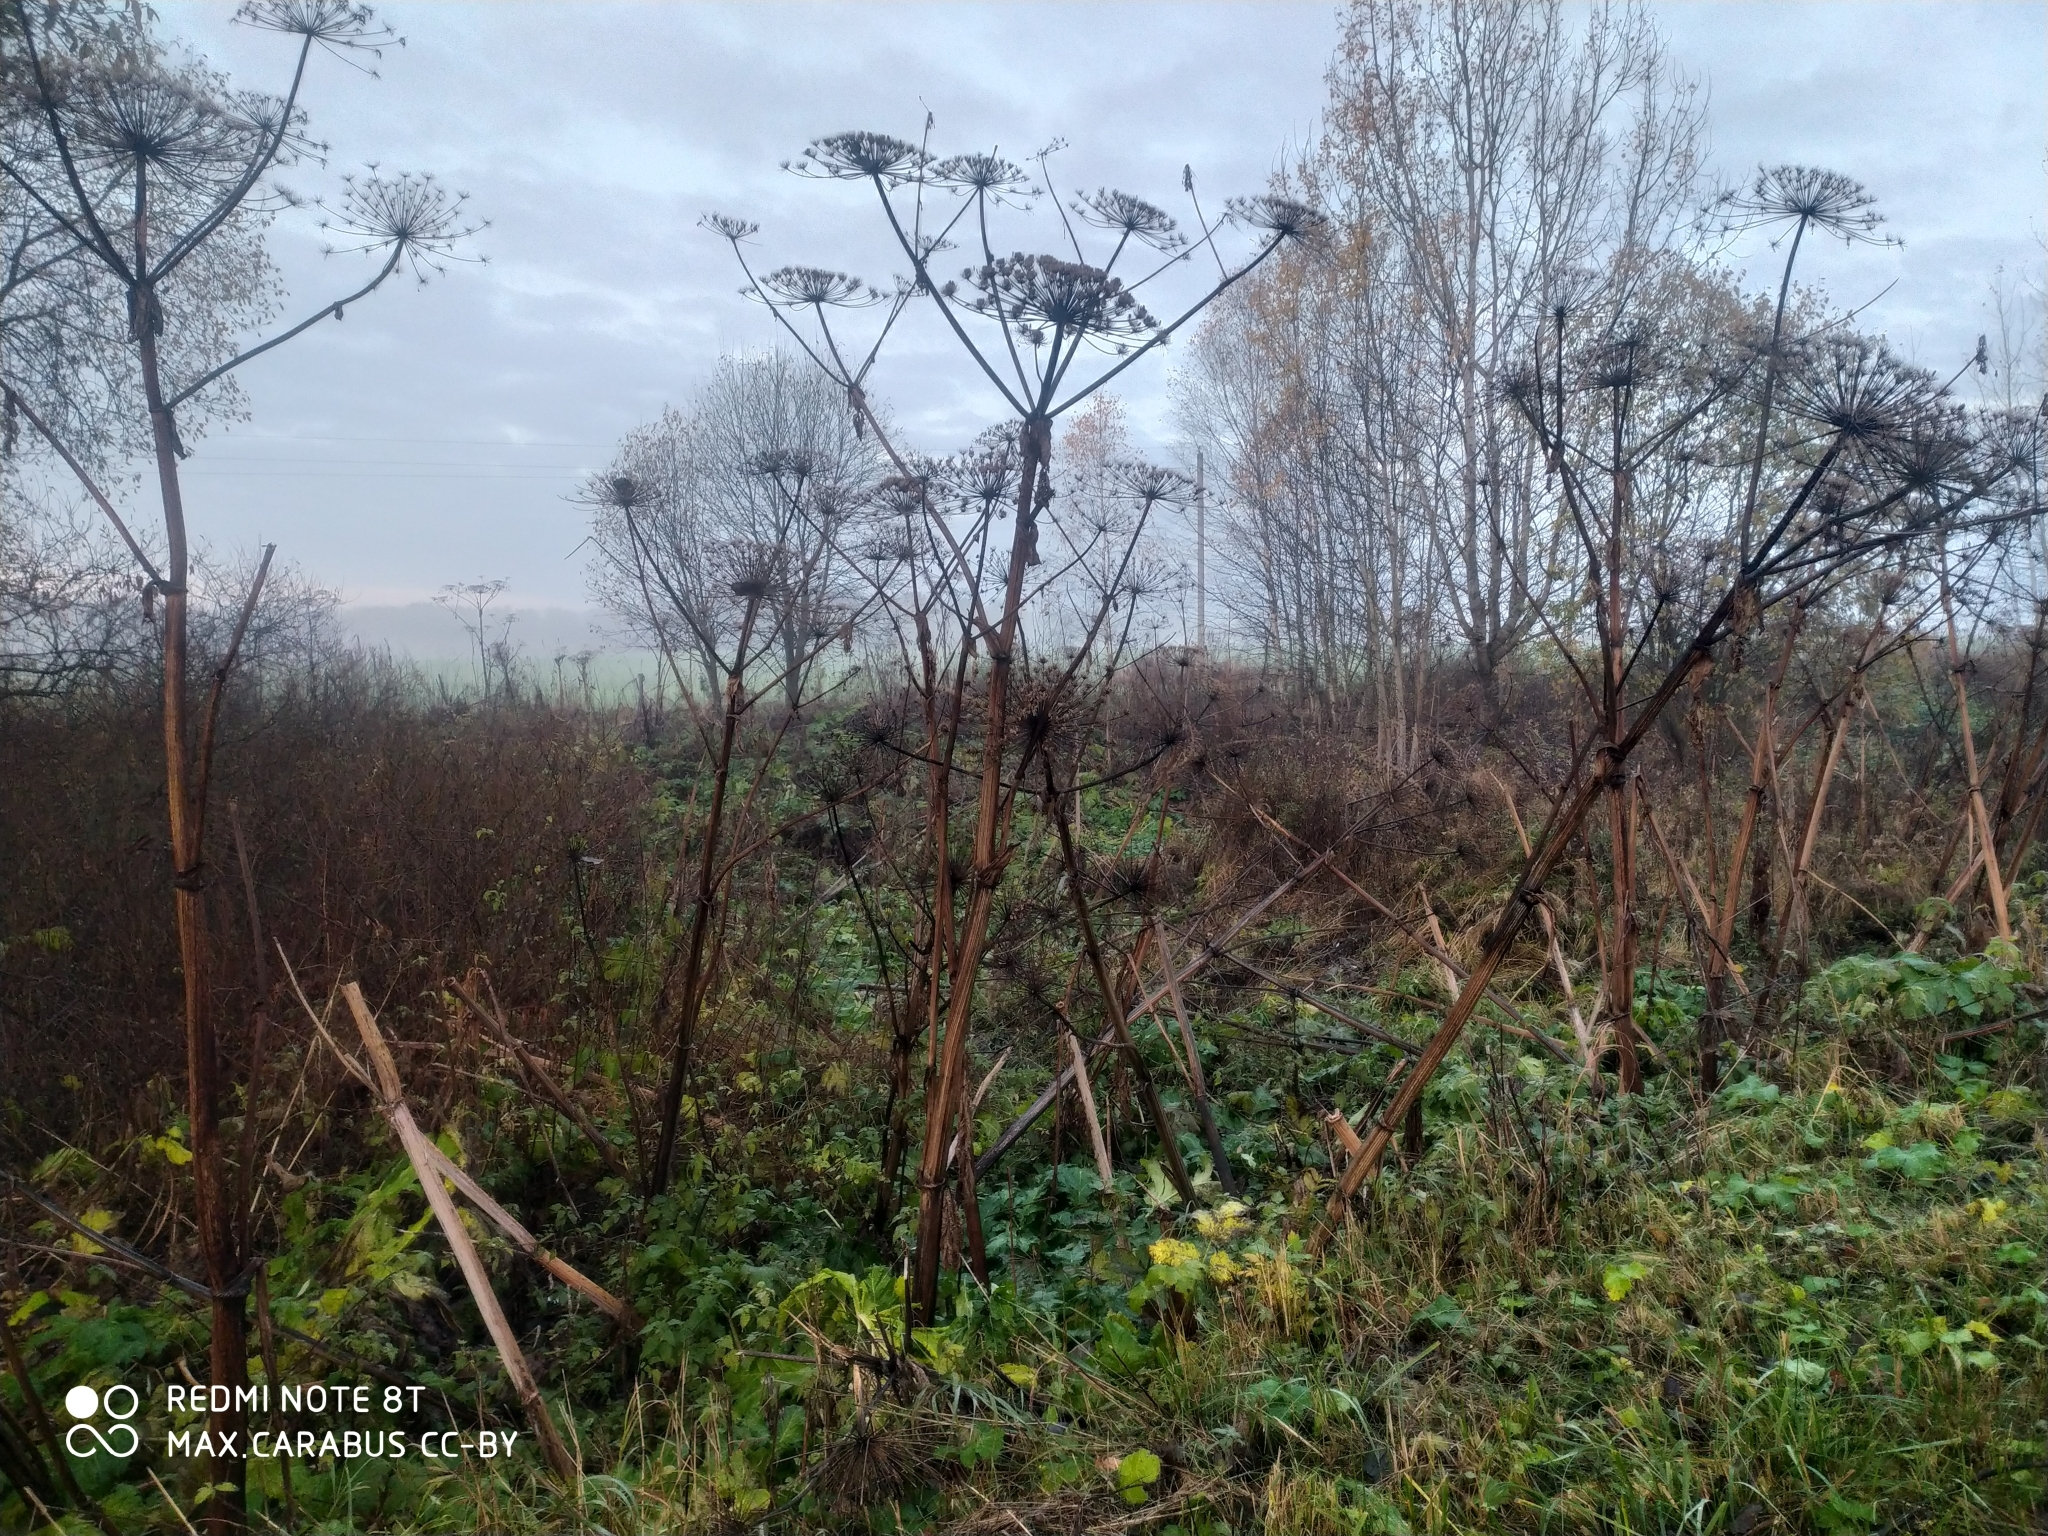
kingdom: Plantae
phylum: Tracheophyta
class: Magnoliopsida
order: Apiales
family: Apiaceae
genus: Heracleum
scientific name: Heracleum sosnowskyi
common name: Sosnowsky's hogweed
